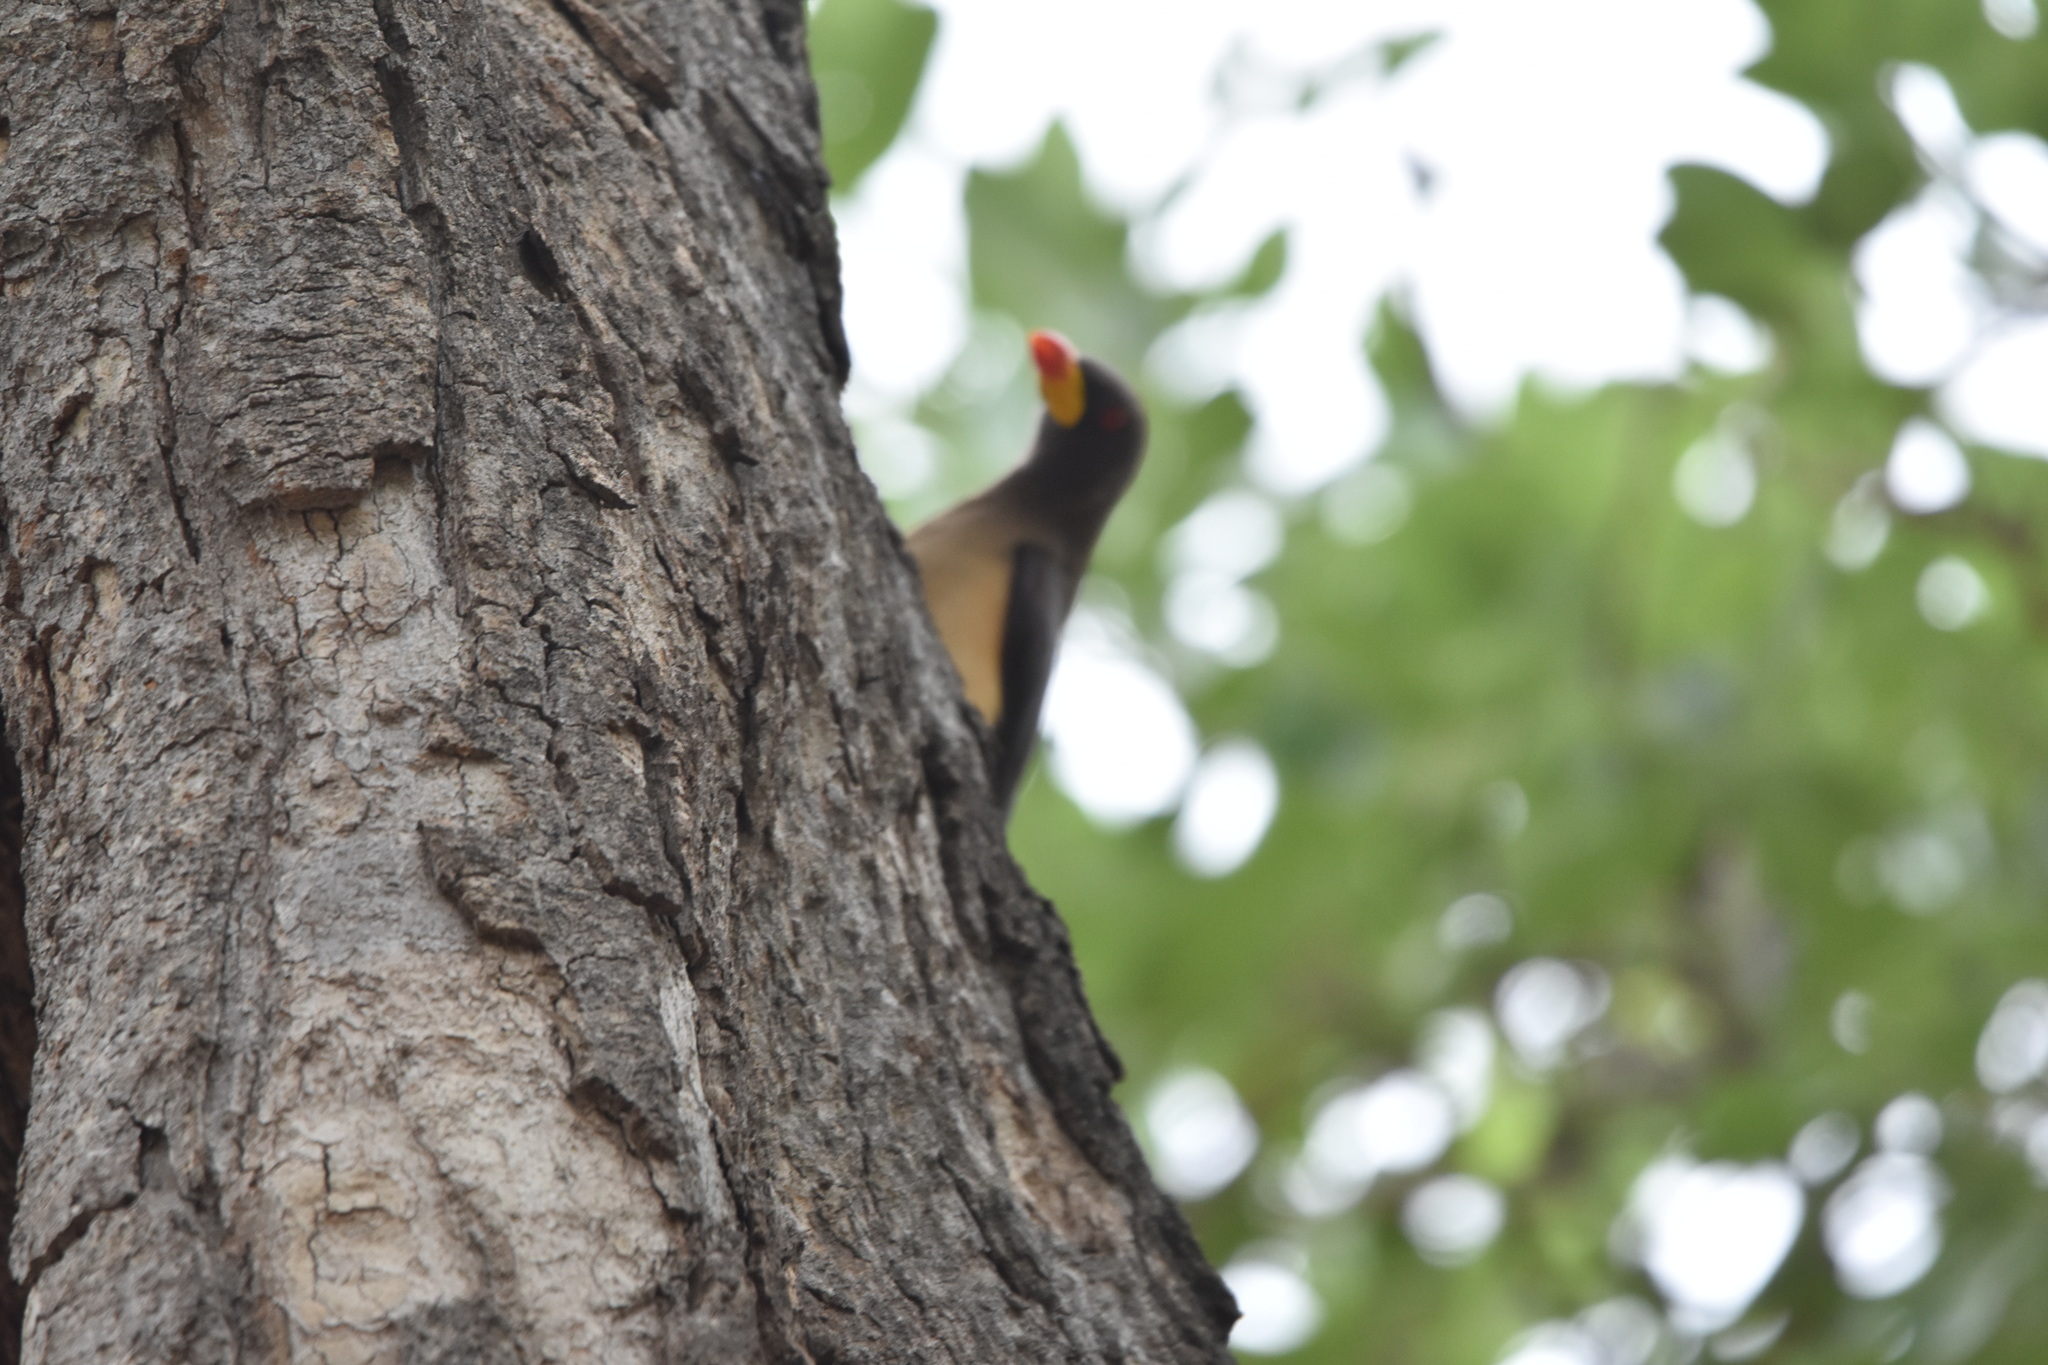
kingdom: Animalia
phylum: Chordata
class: Aves
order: Passeriformes
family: Buphagidae
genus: Buphagus
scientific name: Buphagus africanus
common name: Yellow-billed oxpecker
